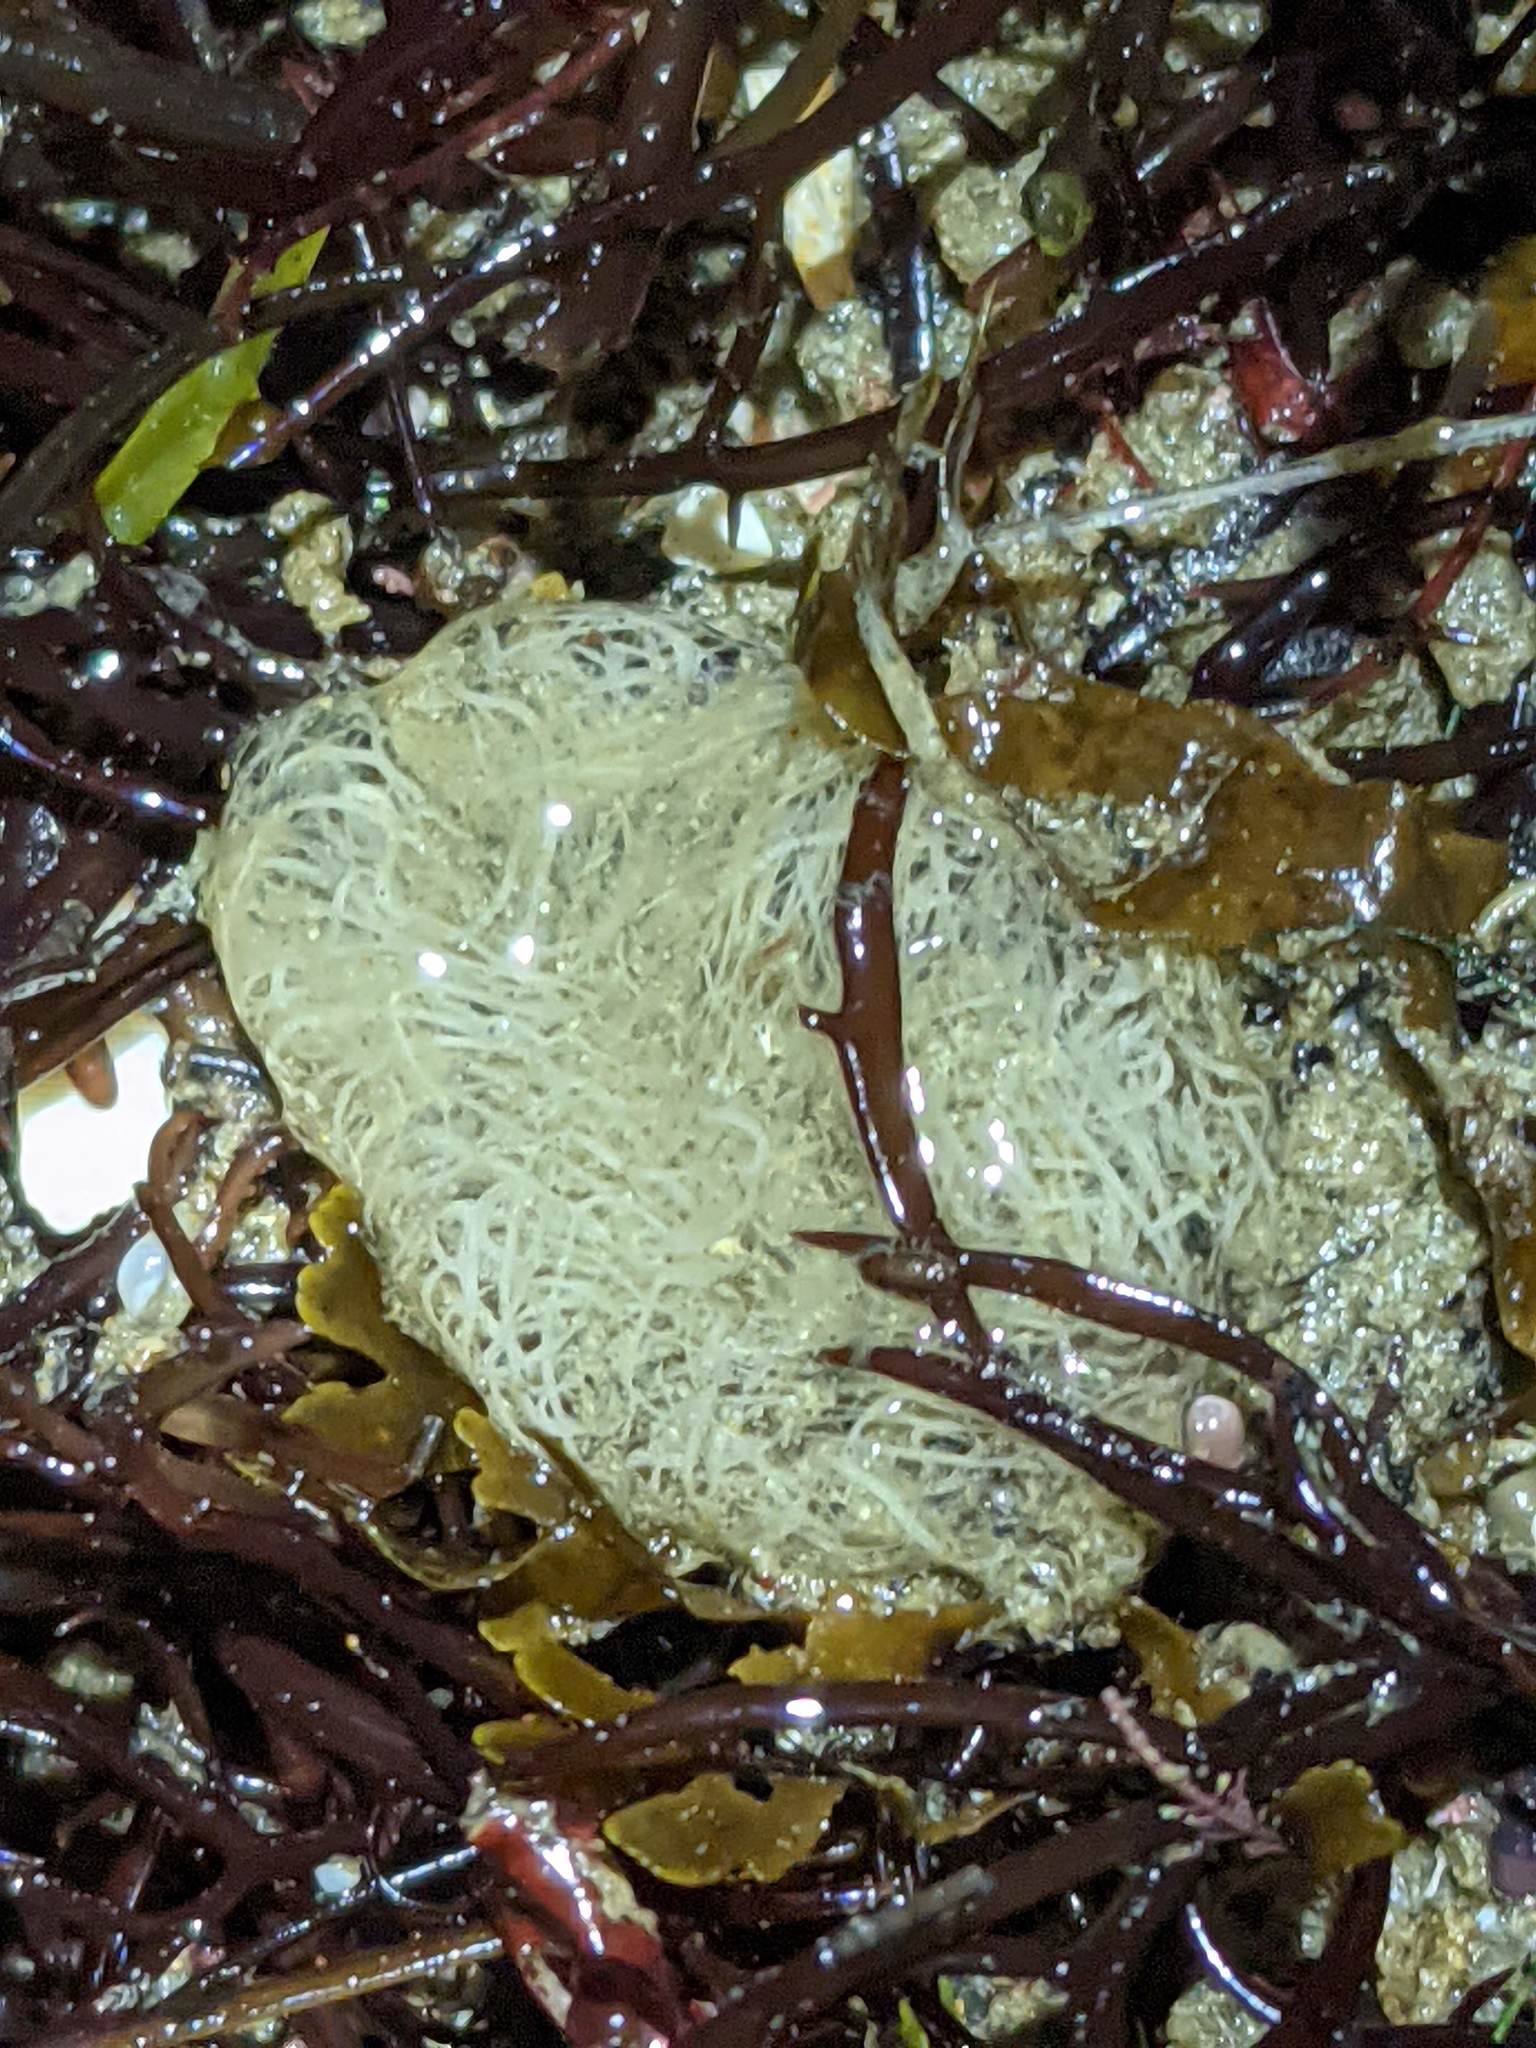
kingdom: Animalia
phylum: Mollusca
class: Gastropoda
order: Cephalaspidea
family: Aglajidae
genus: Navanax
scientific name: Navanax inermis
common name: California aglaja
